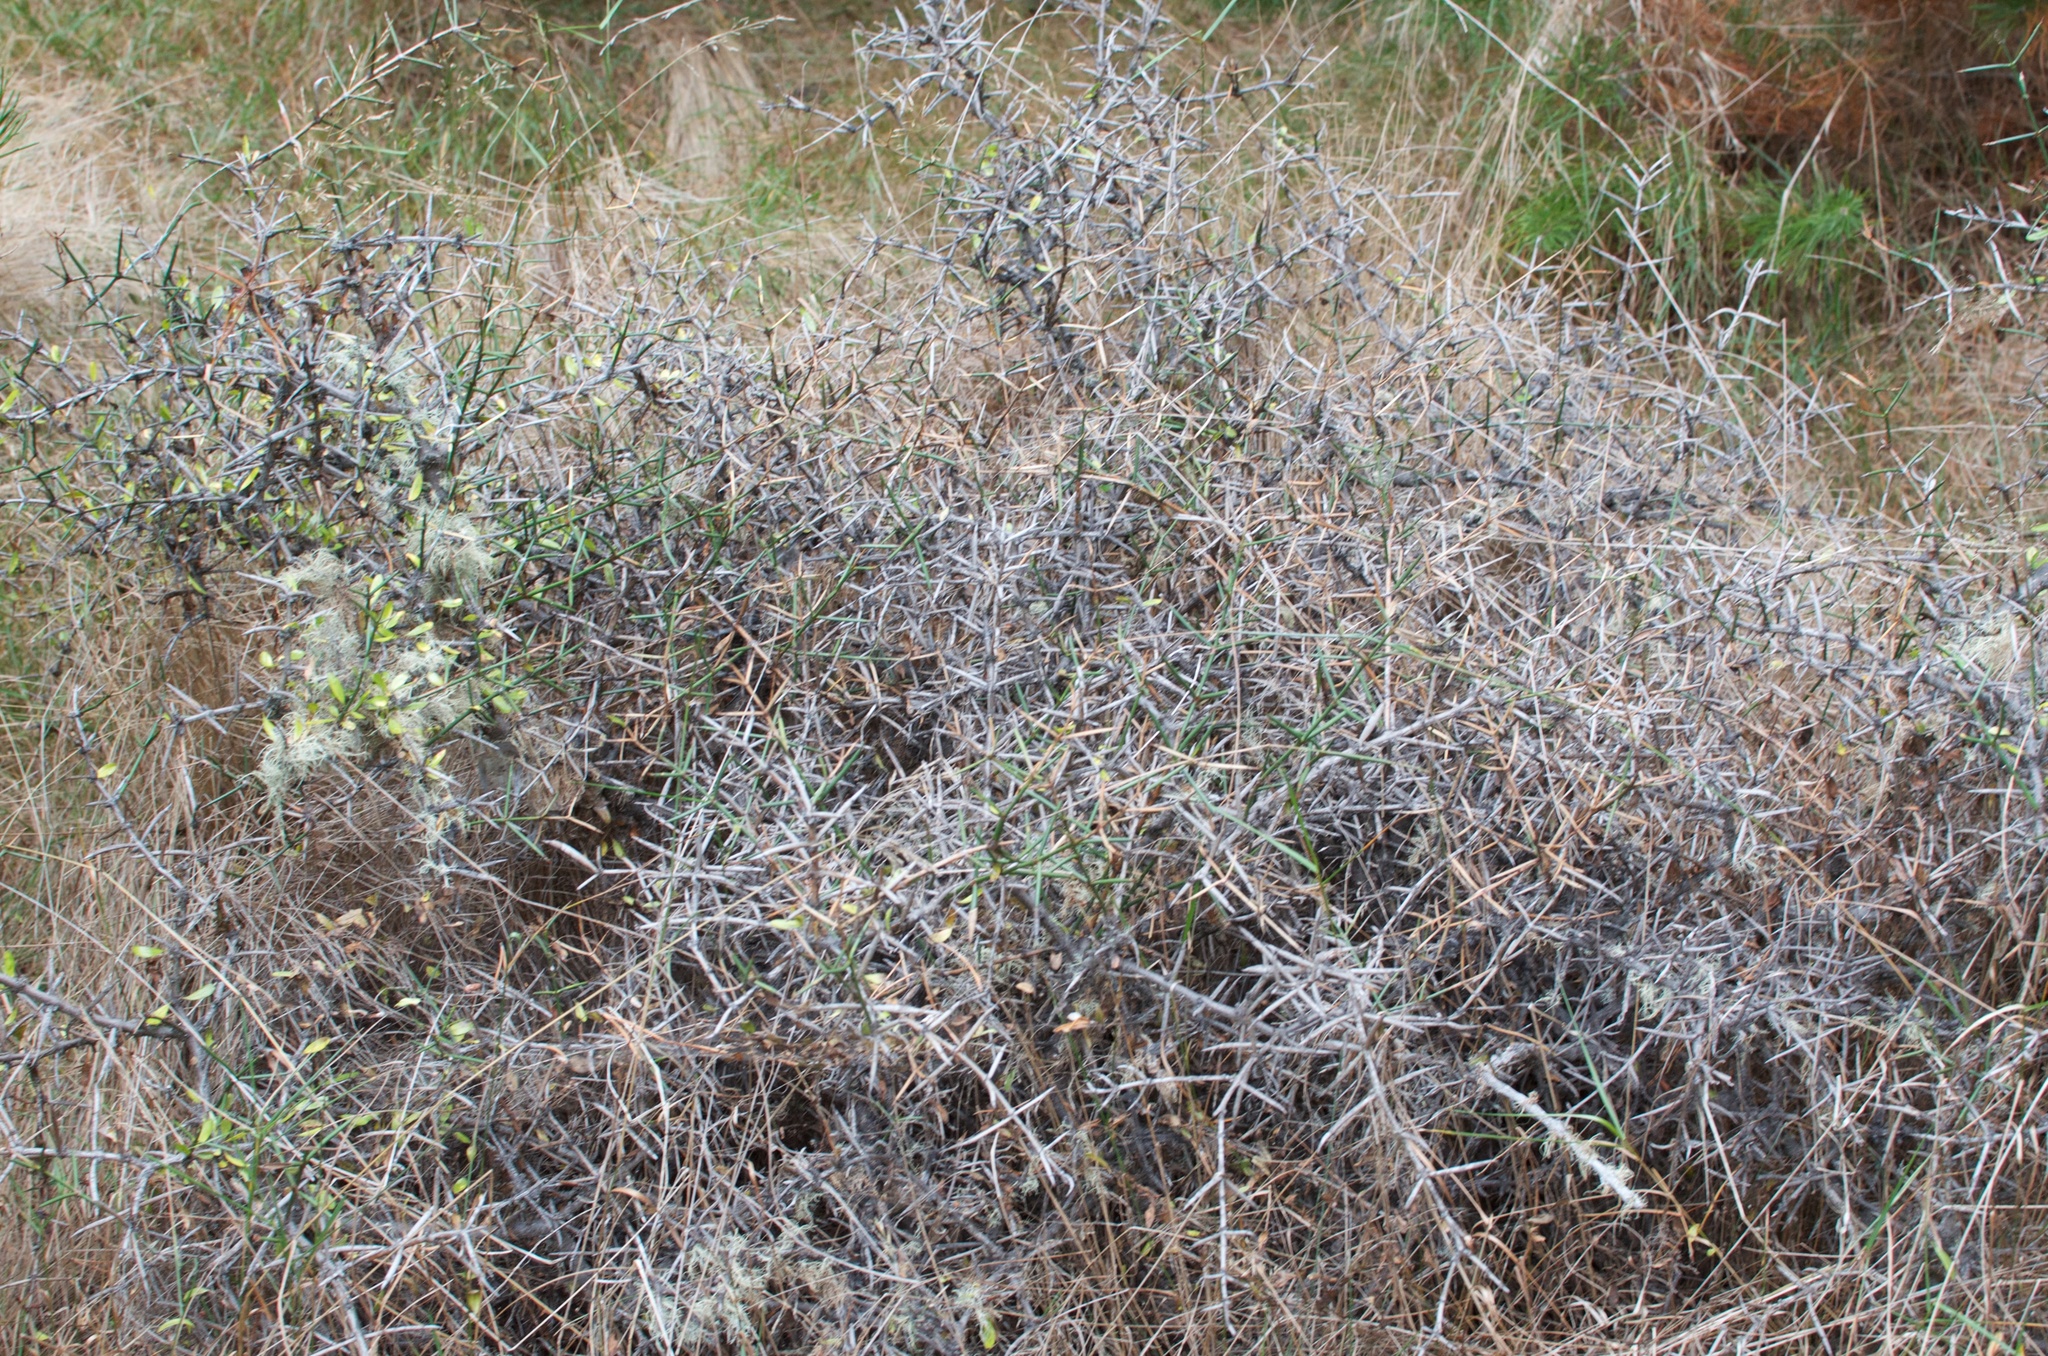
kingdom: Plantae
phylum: Tracheophyta
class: Magnoliopsida
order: Rosales
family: Rhamnaceae
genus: Discaria
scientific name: Discaria toumatou
